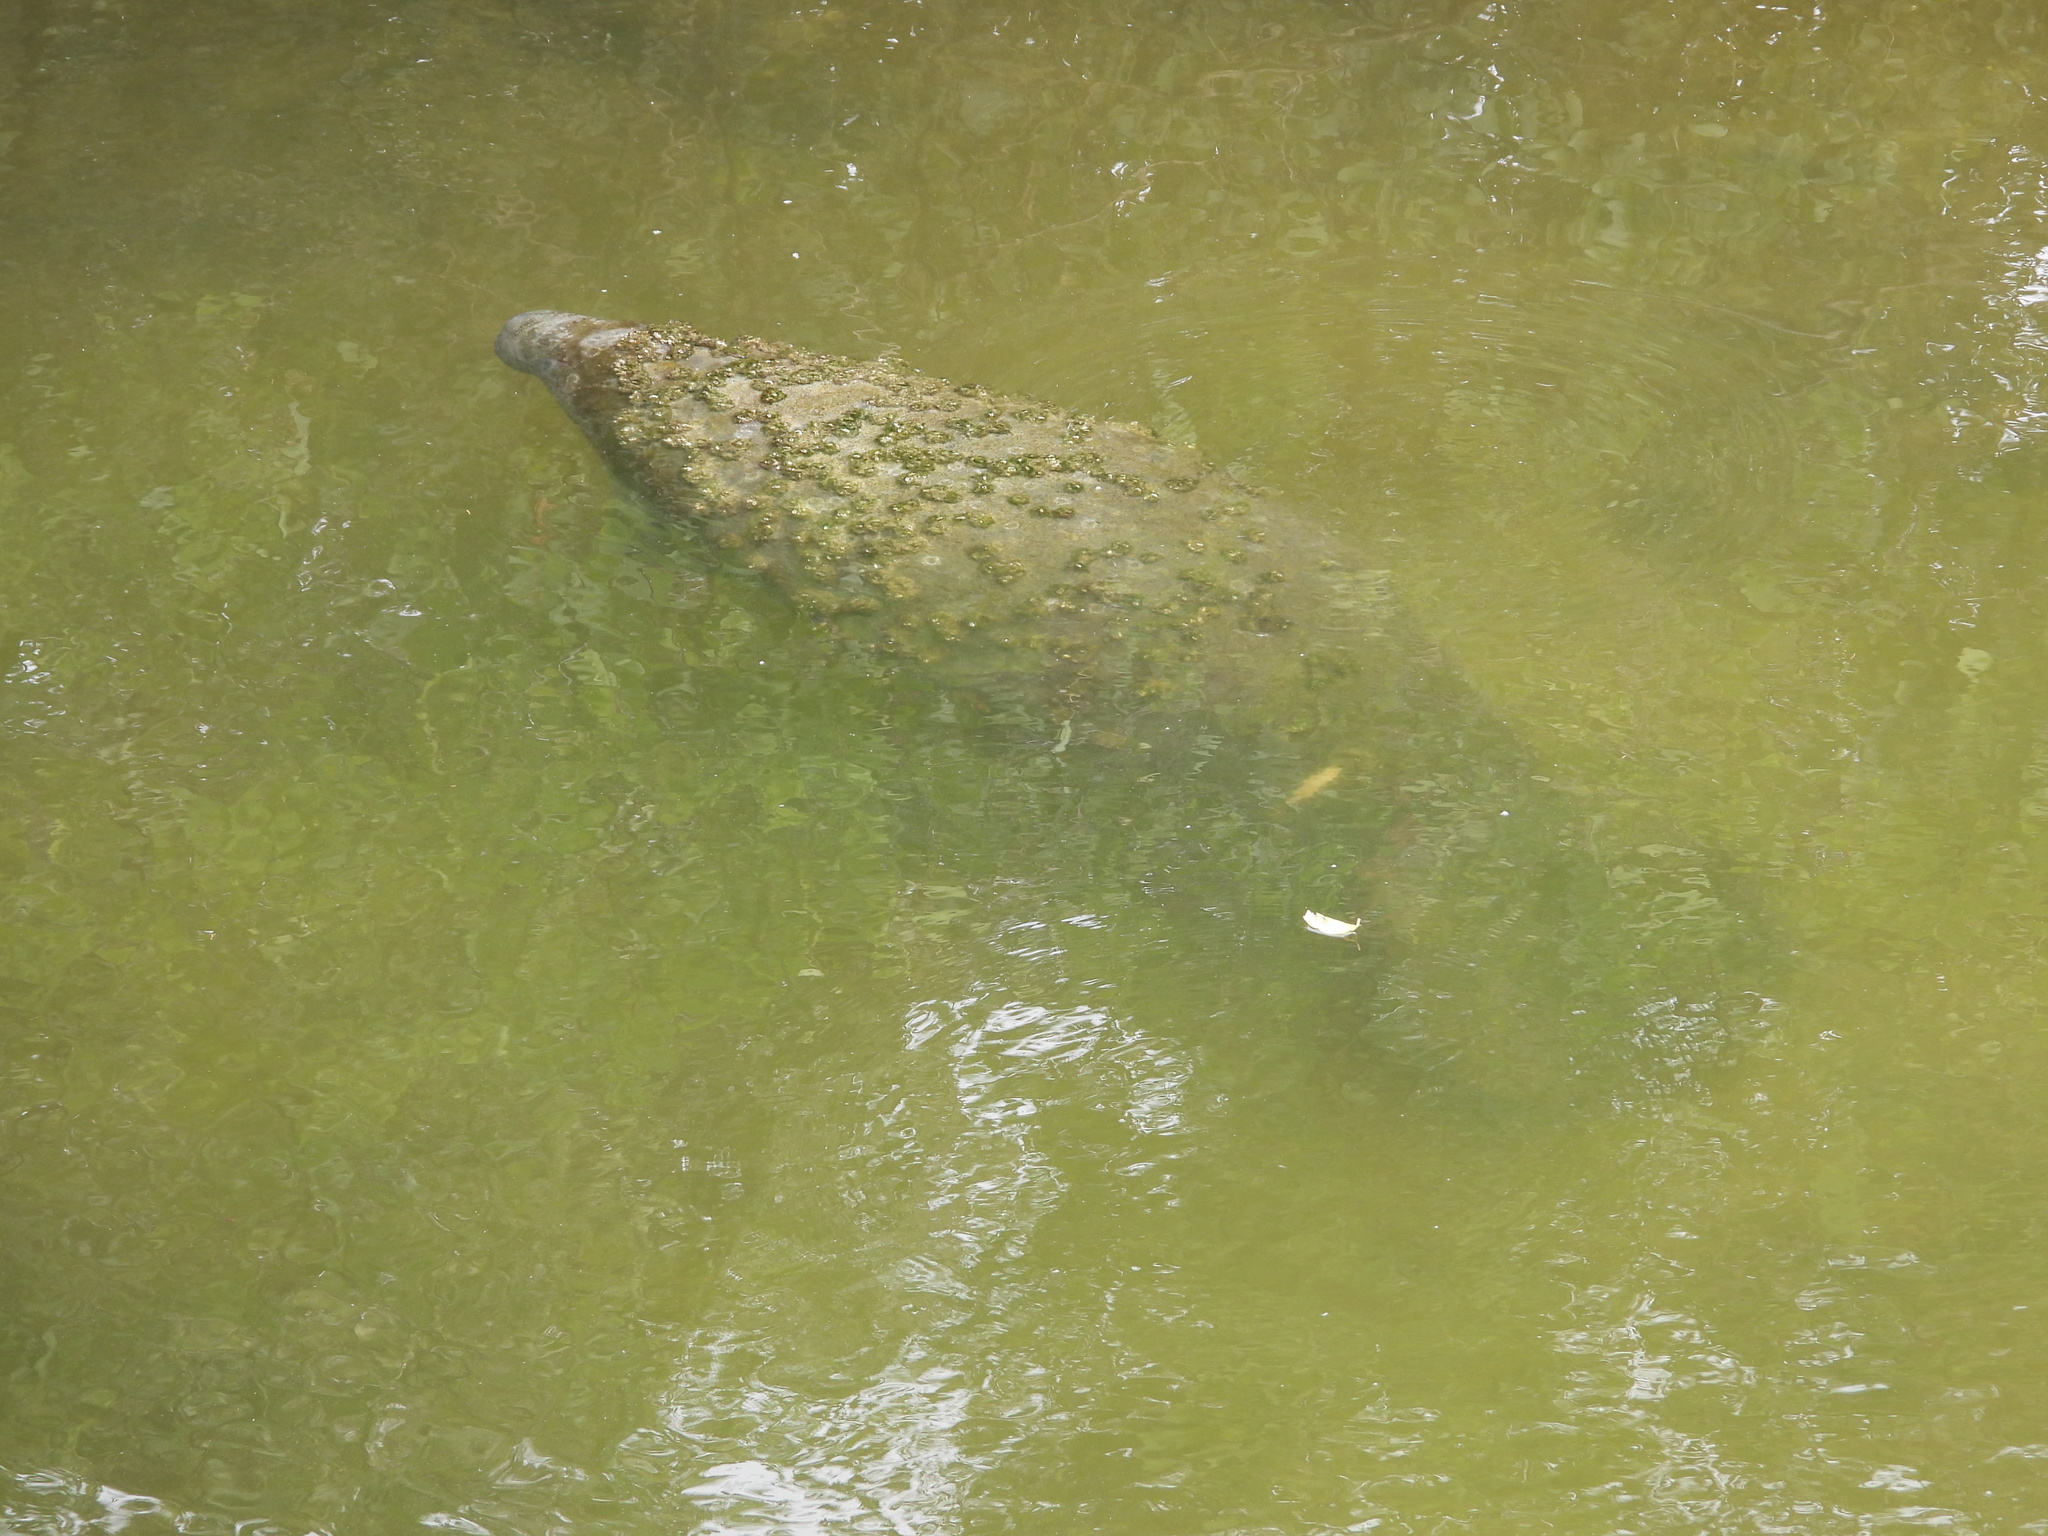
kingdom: Animalia
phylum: Chordata
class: Mammalia
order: Sirenia
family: Trichechidae
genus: Trichechus
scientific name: Trichechus manatus
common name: West indian manatee
